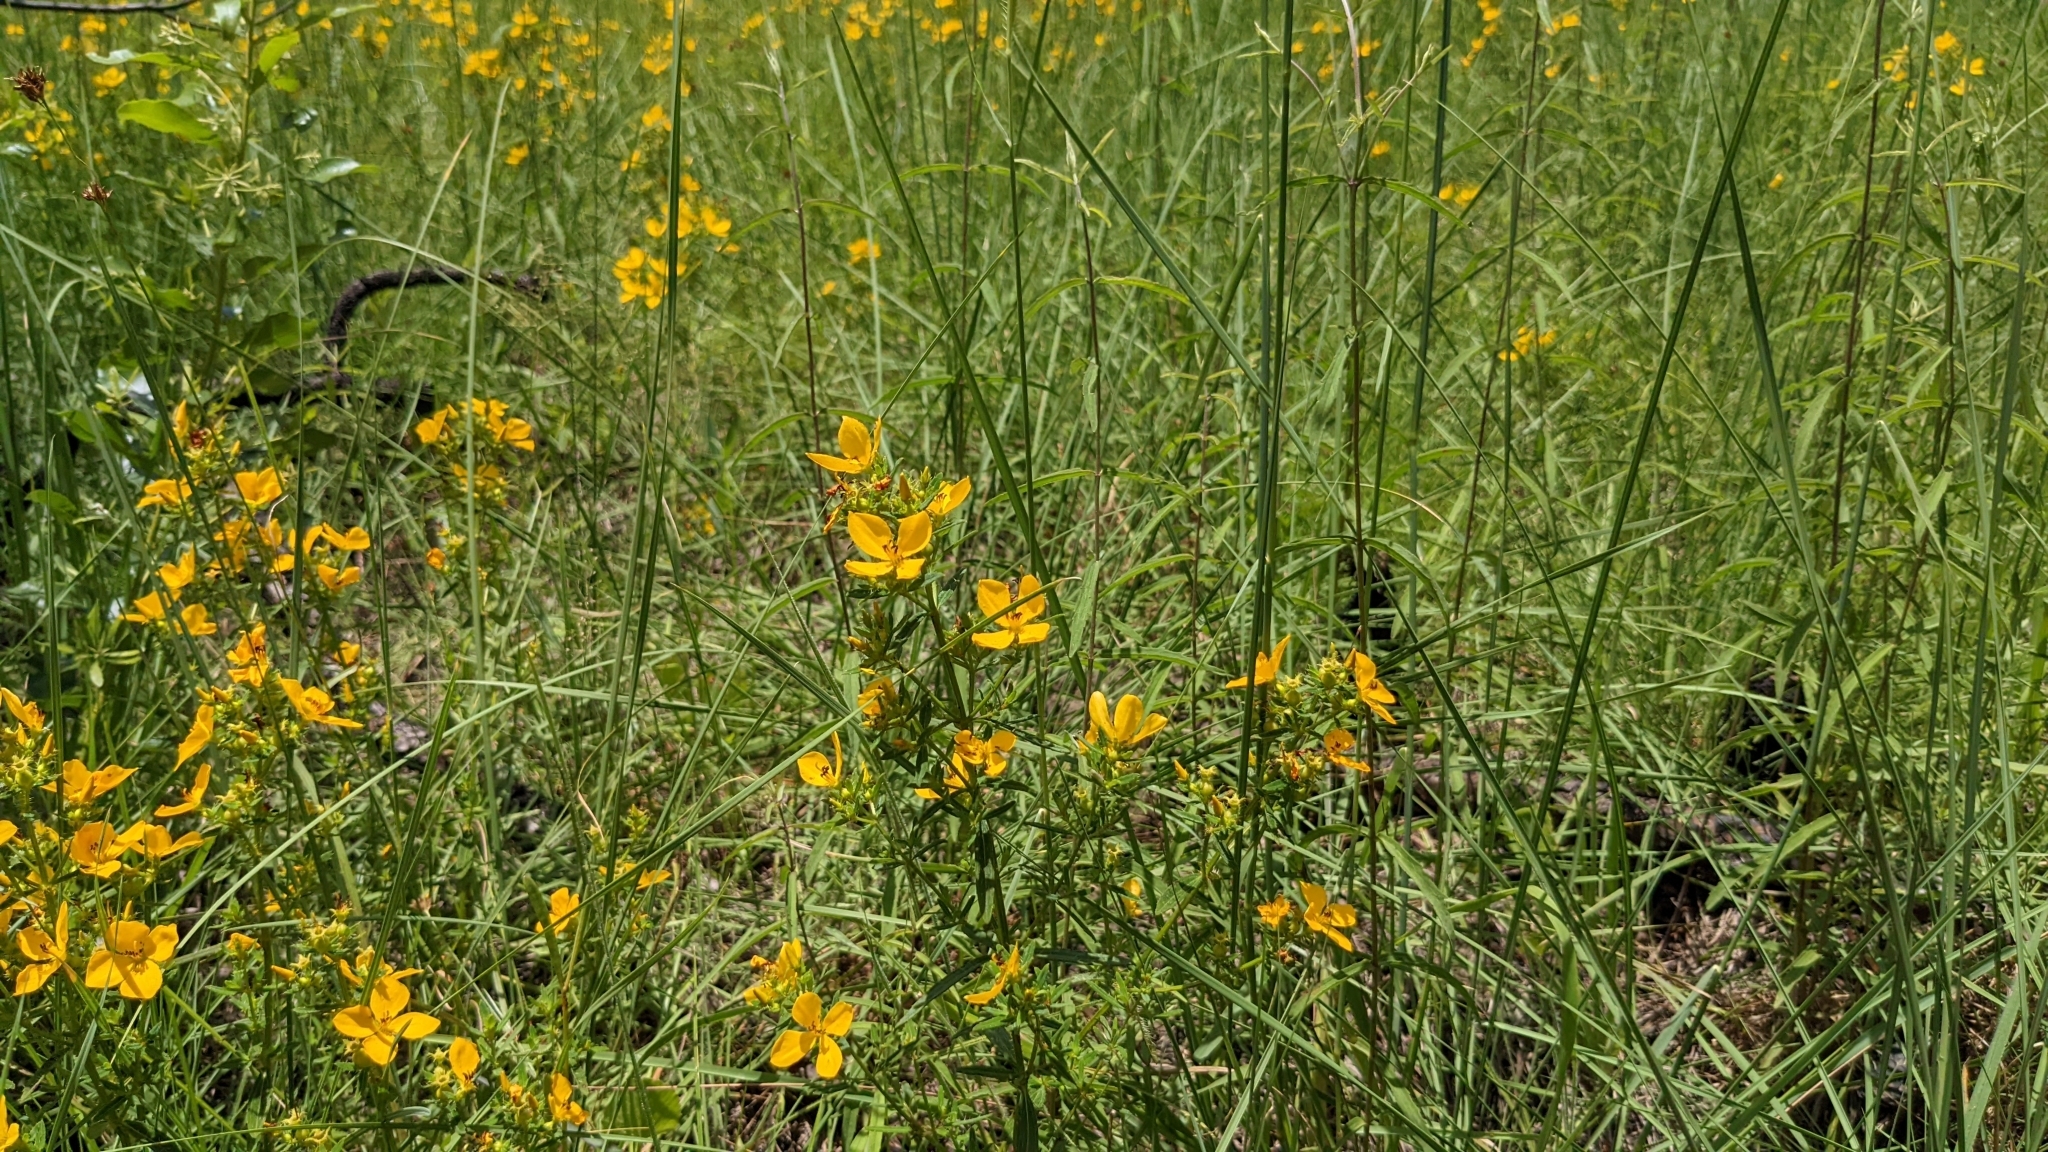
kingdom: Plantae
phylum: Tracheophyta
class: Magnoliopsida
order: Myrtales
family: Melastomataceae
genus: Rhexia
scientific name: Rhexia lutea
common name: Golden meadow-beauty
